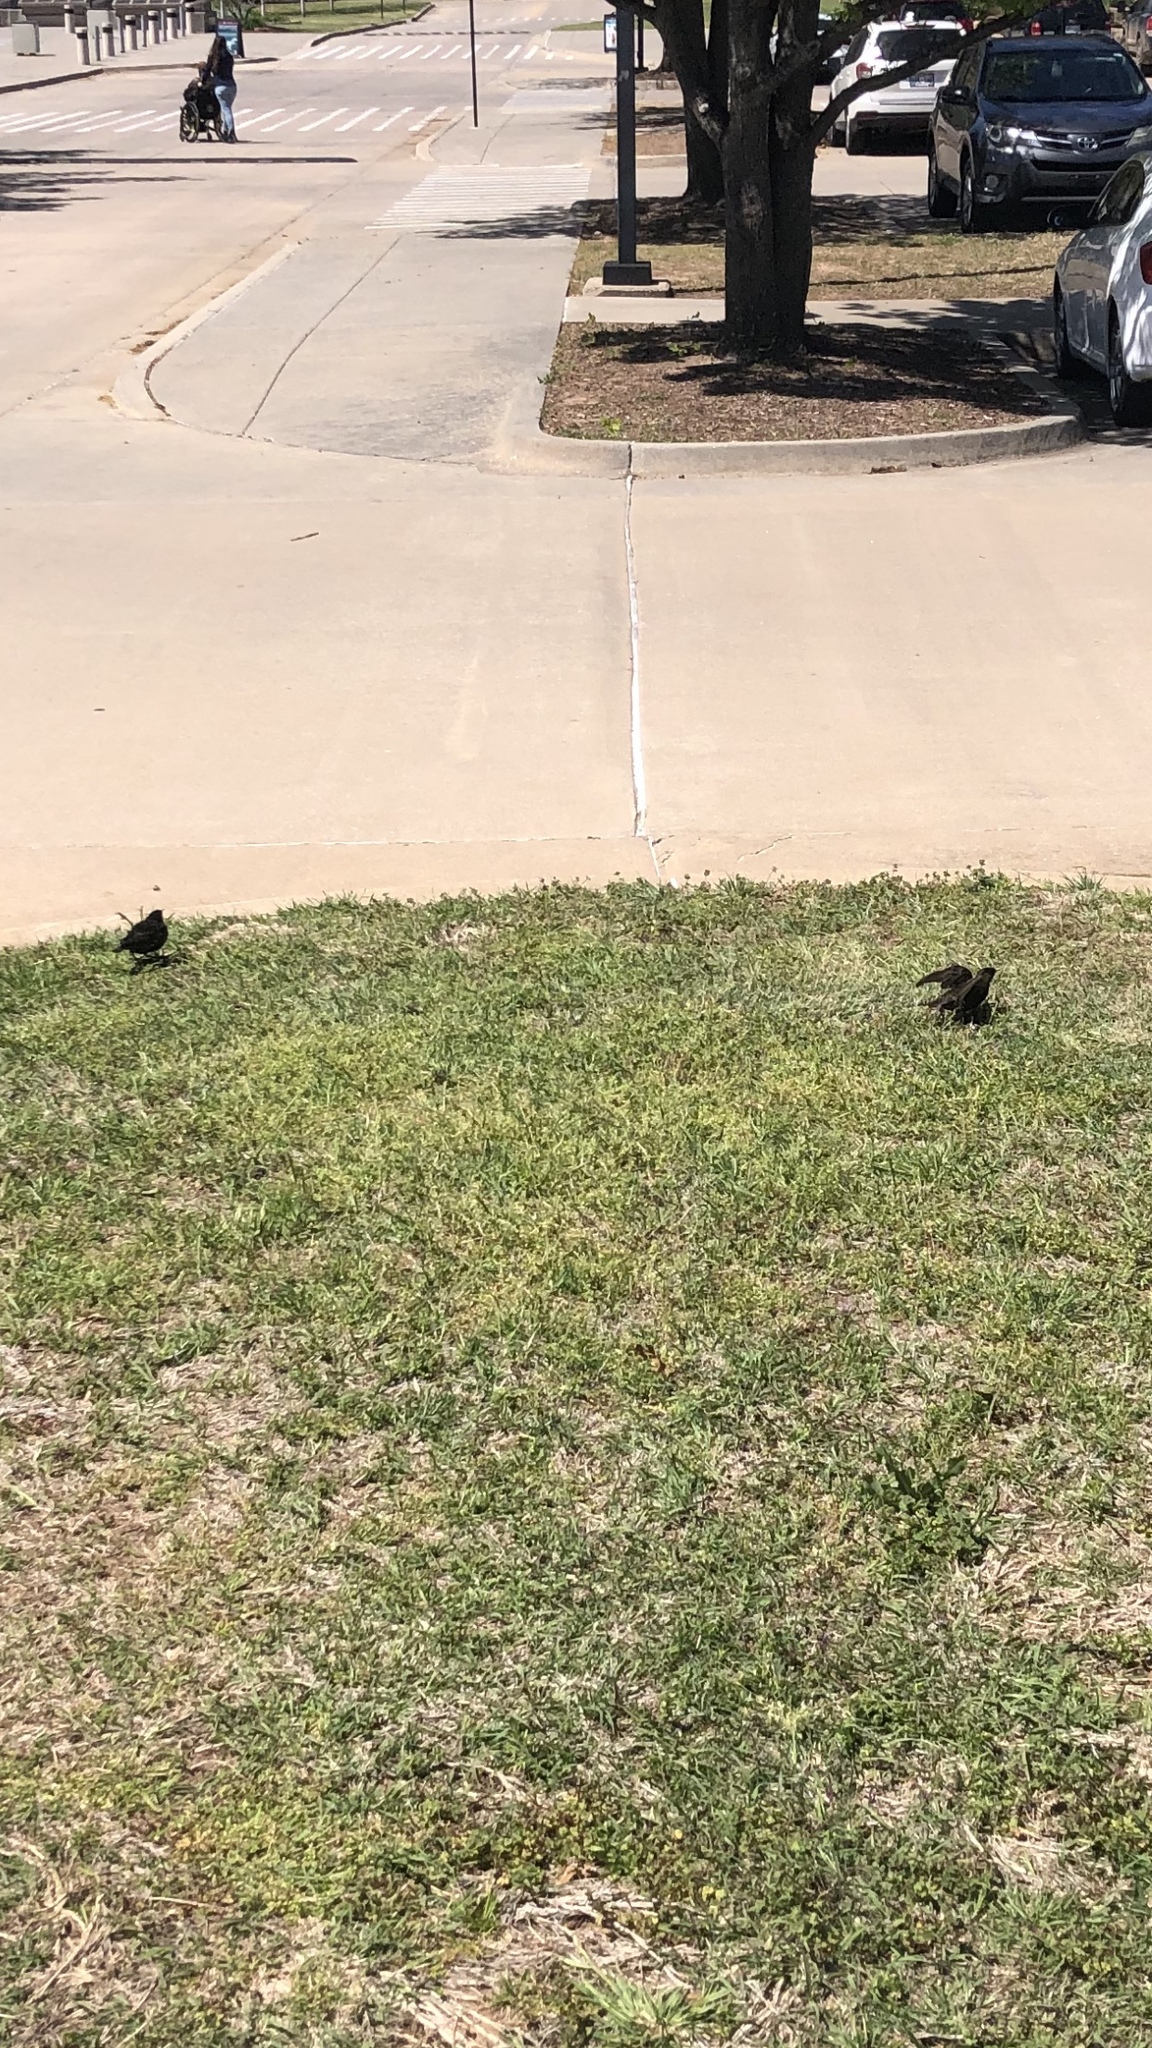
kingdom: Animalia
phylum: Chordata
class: Aves
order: Passeriformes
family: Sturnidae
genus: Sturnus
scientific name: Sturnus vulgaris
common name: Common starling
